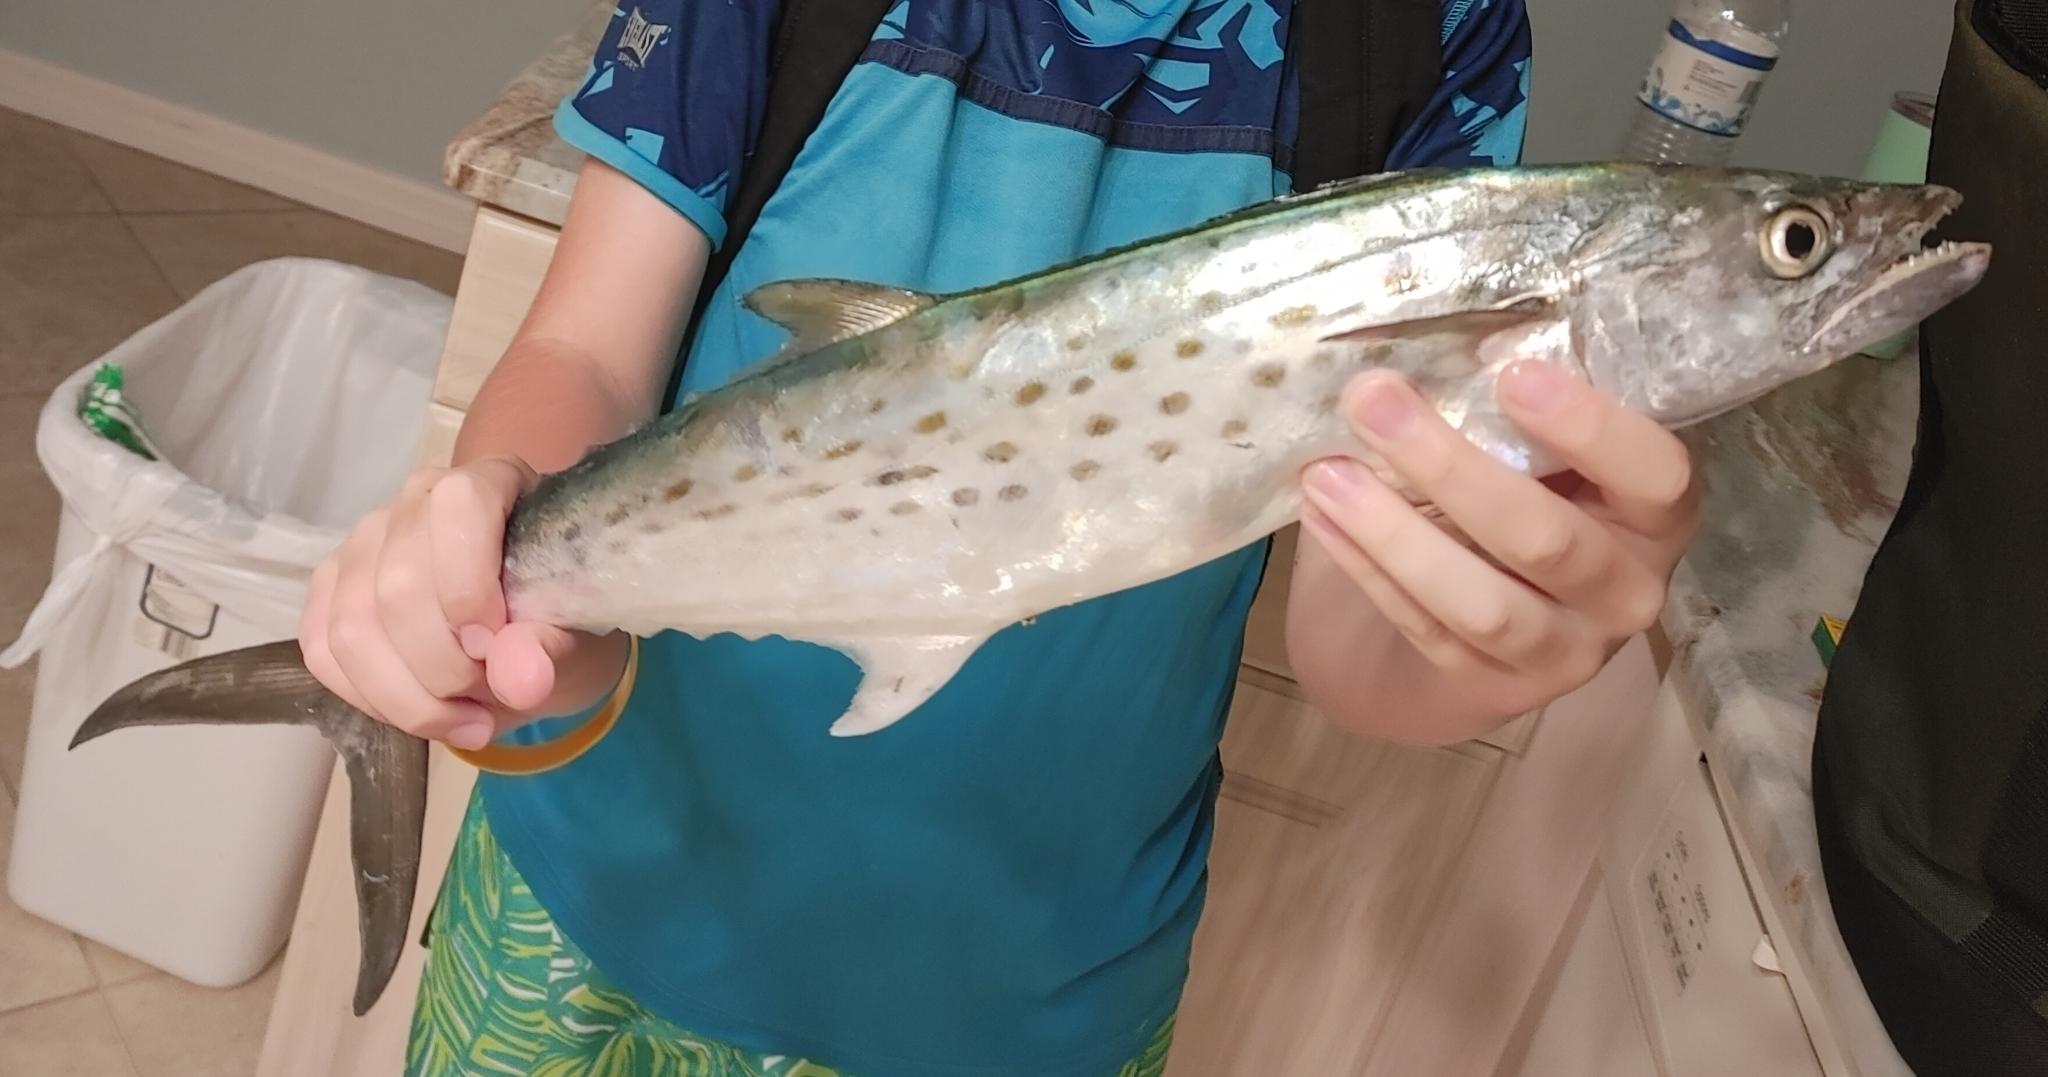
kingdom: Animalia
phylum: Chordata
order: Perciformes
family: Scombridae
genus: Scomberomorus
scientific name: Scomberomorus maculatus
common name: Spanish mackerel
